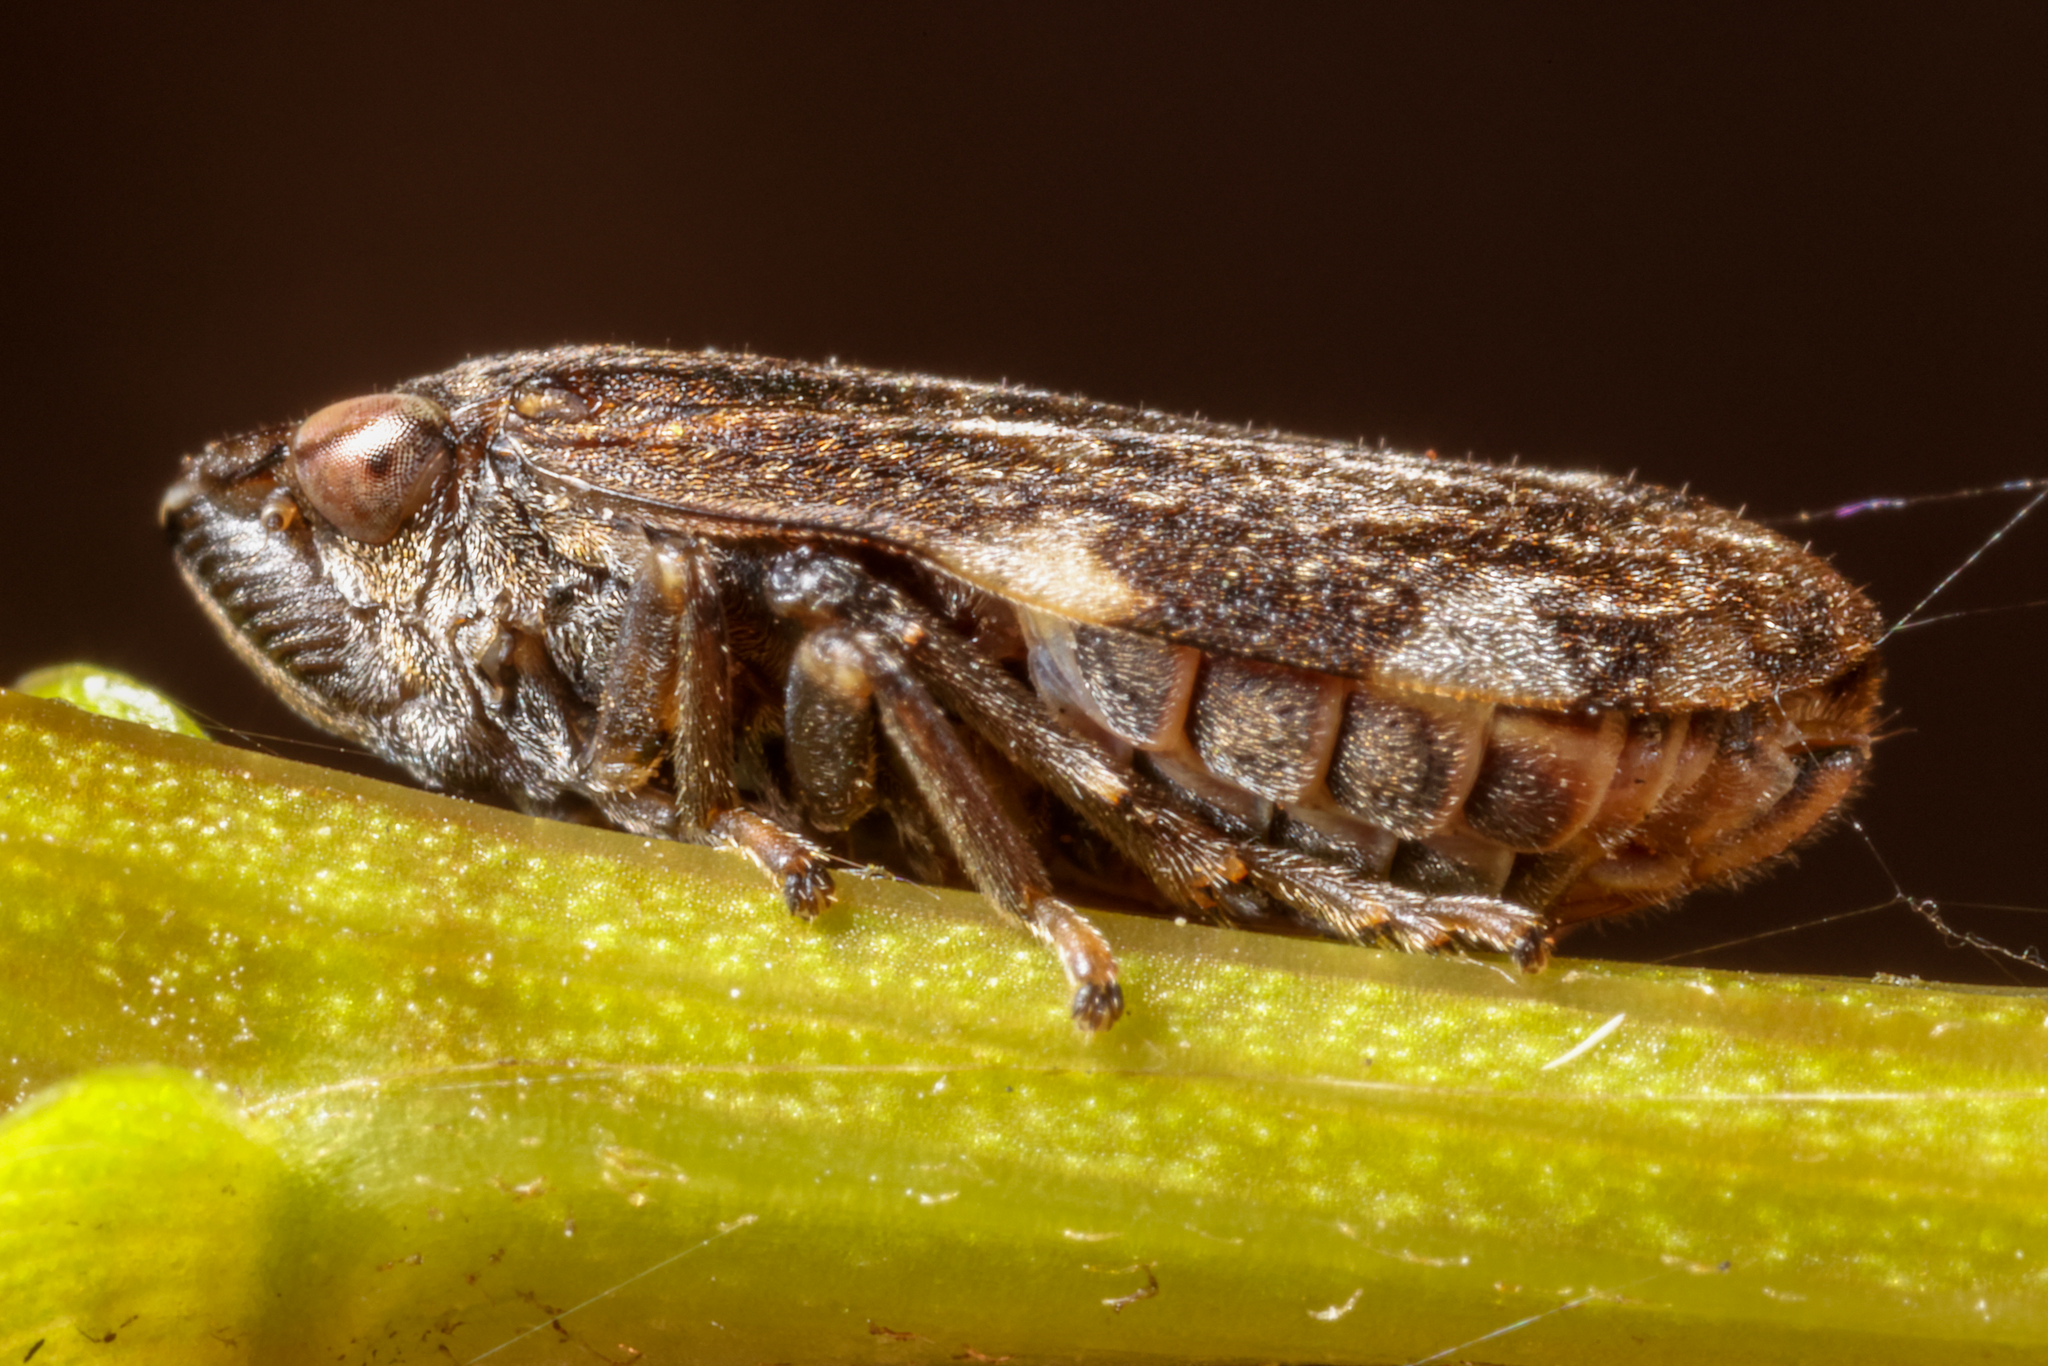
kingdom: Animalia
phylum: Arthropoda
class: Insecta
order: Hemiptera
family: Aphrophoridae
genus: Philaenus
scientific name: Philaenus spumarius
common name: Meadow spittlebug
